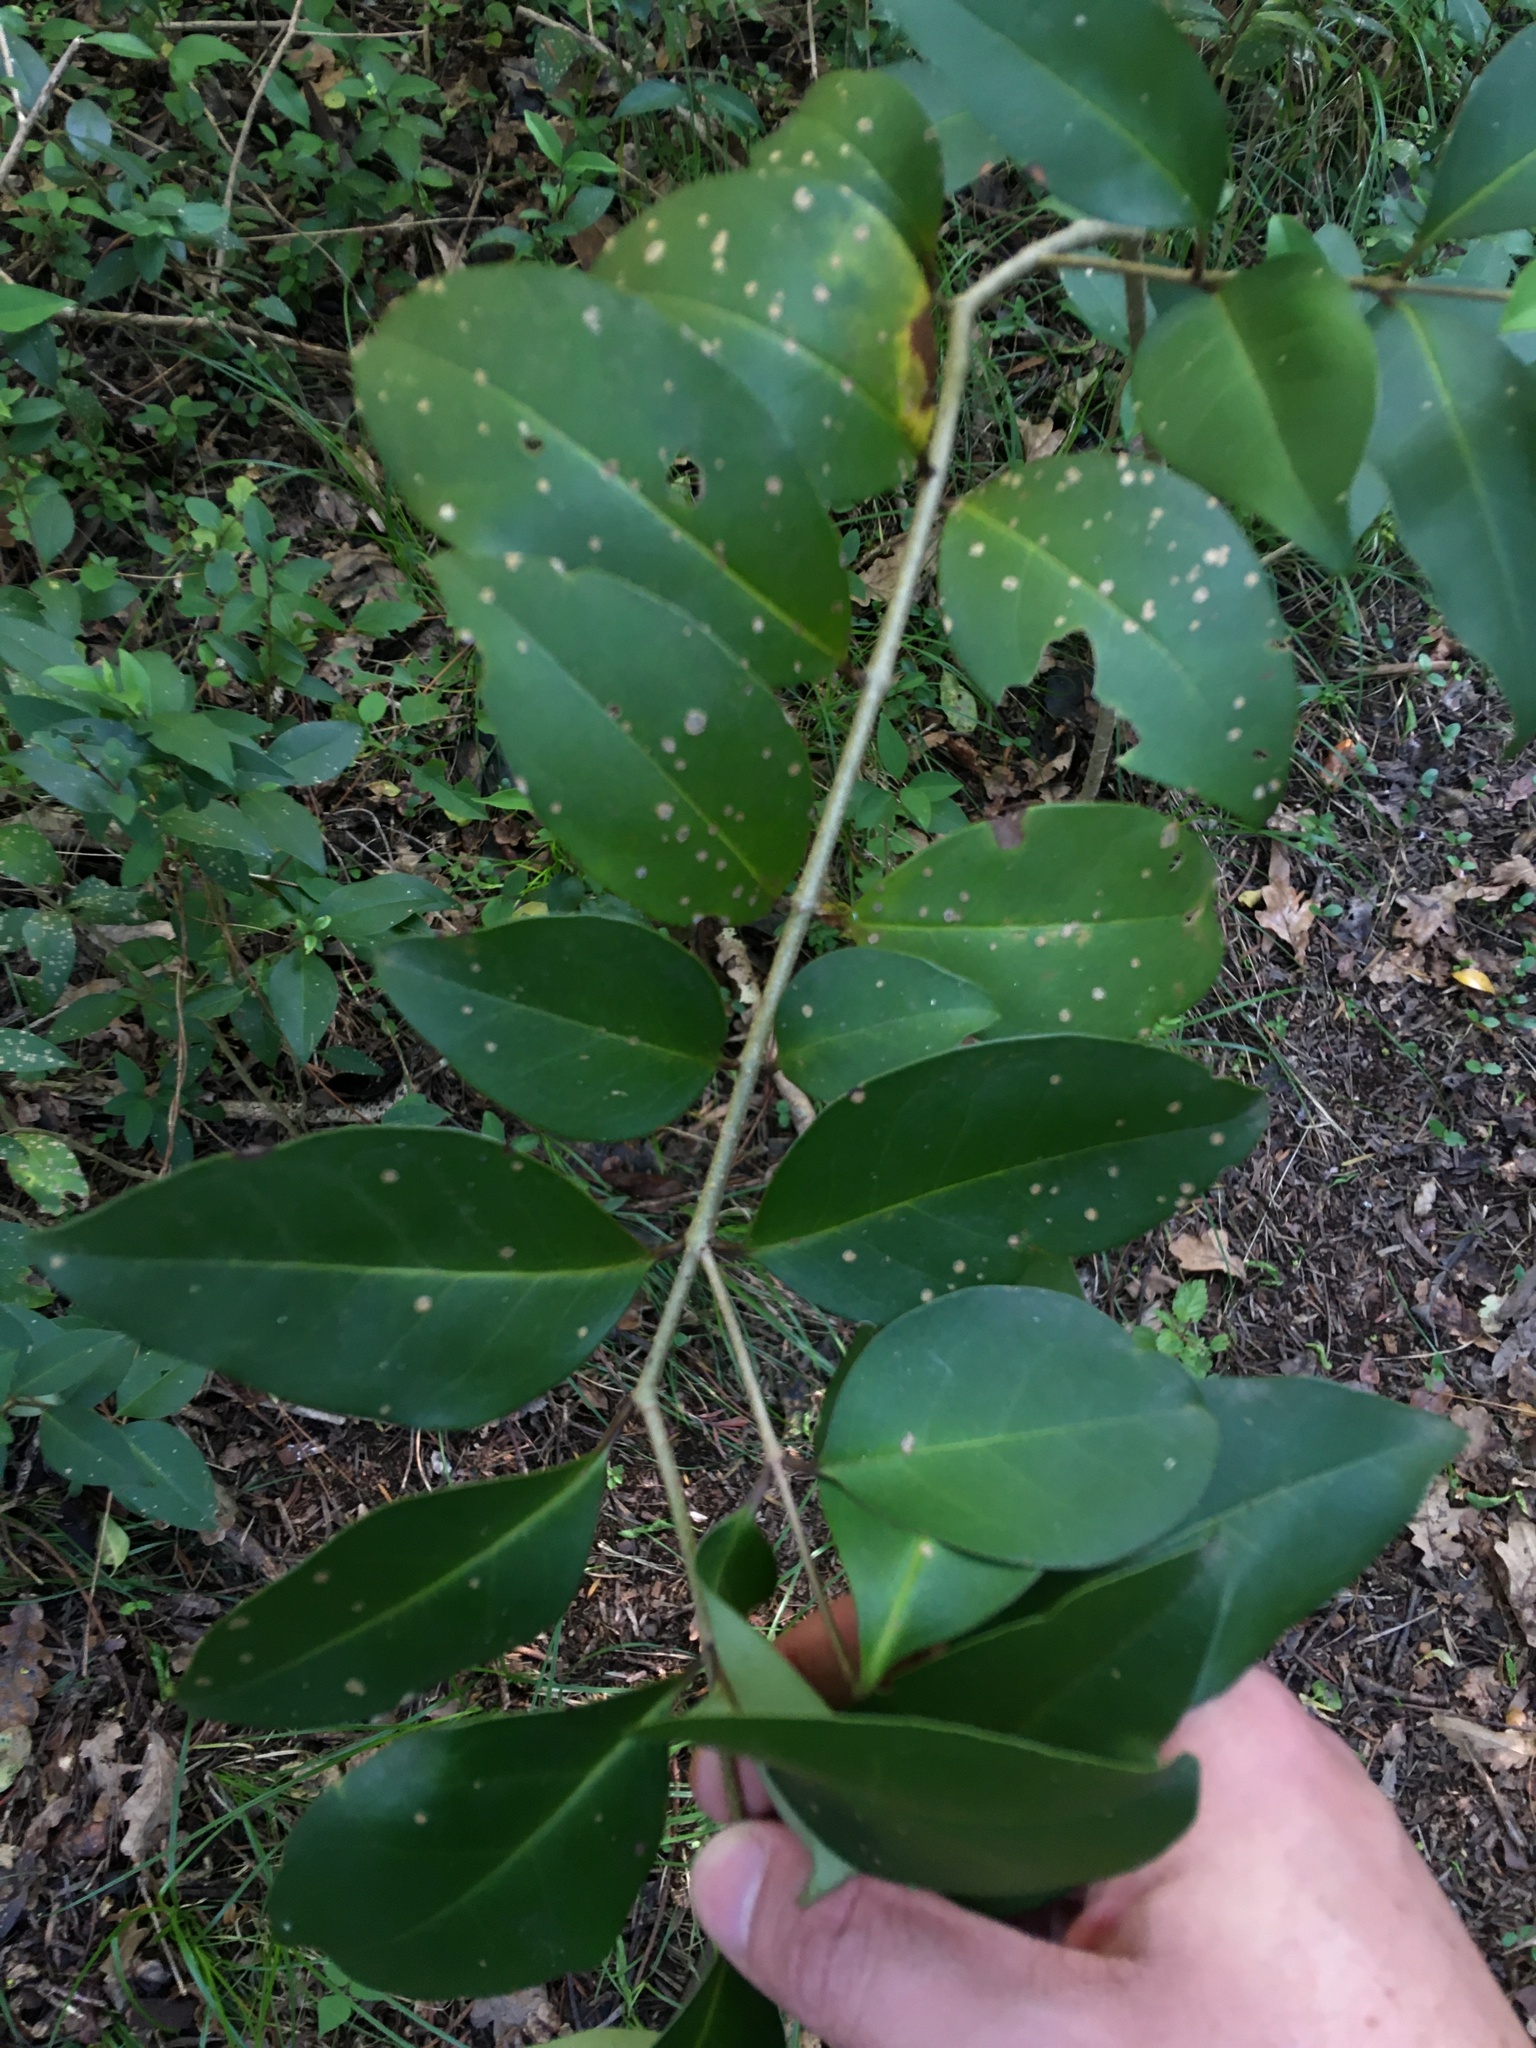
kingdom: Plantae
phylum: Tracheophyta
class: Magnoliopsida
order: Lamiales
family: Oleaceae
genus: Ligustrum
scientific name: Ligustrum lucidum
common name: Glossy privet
